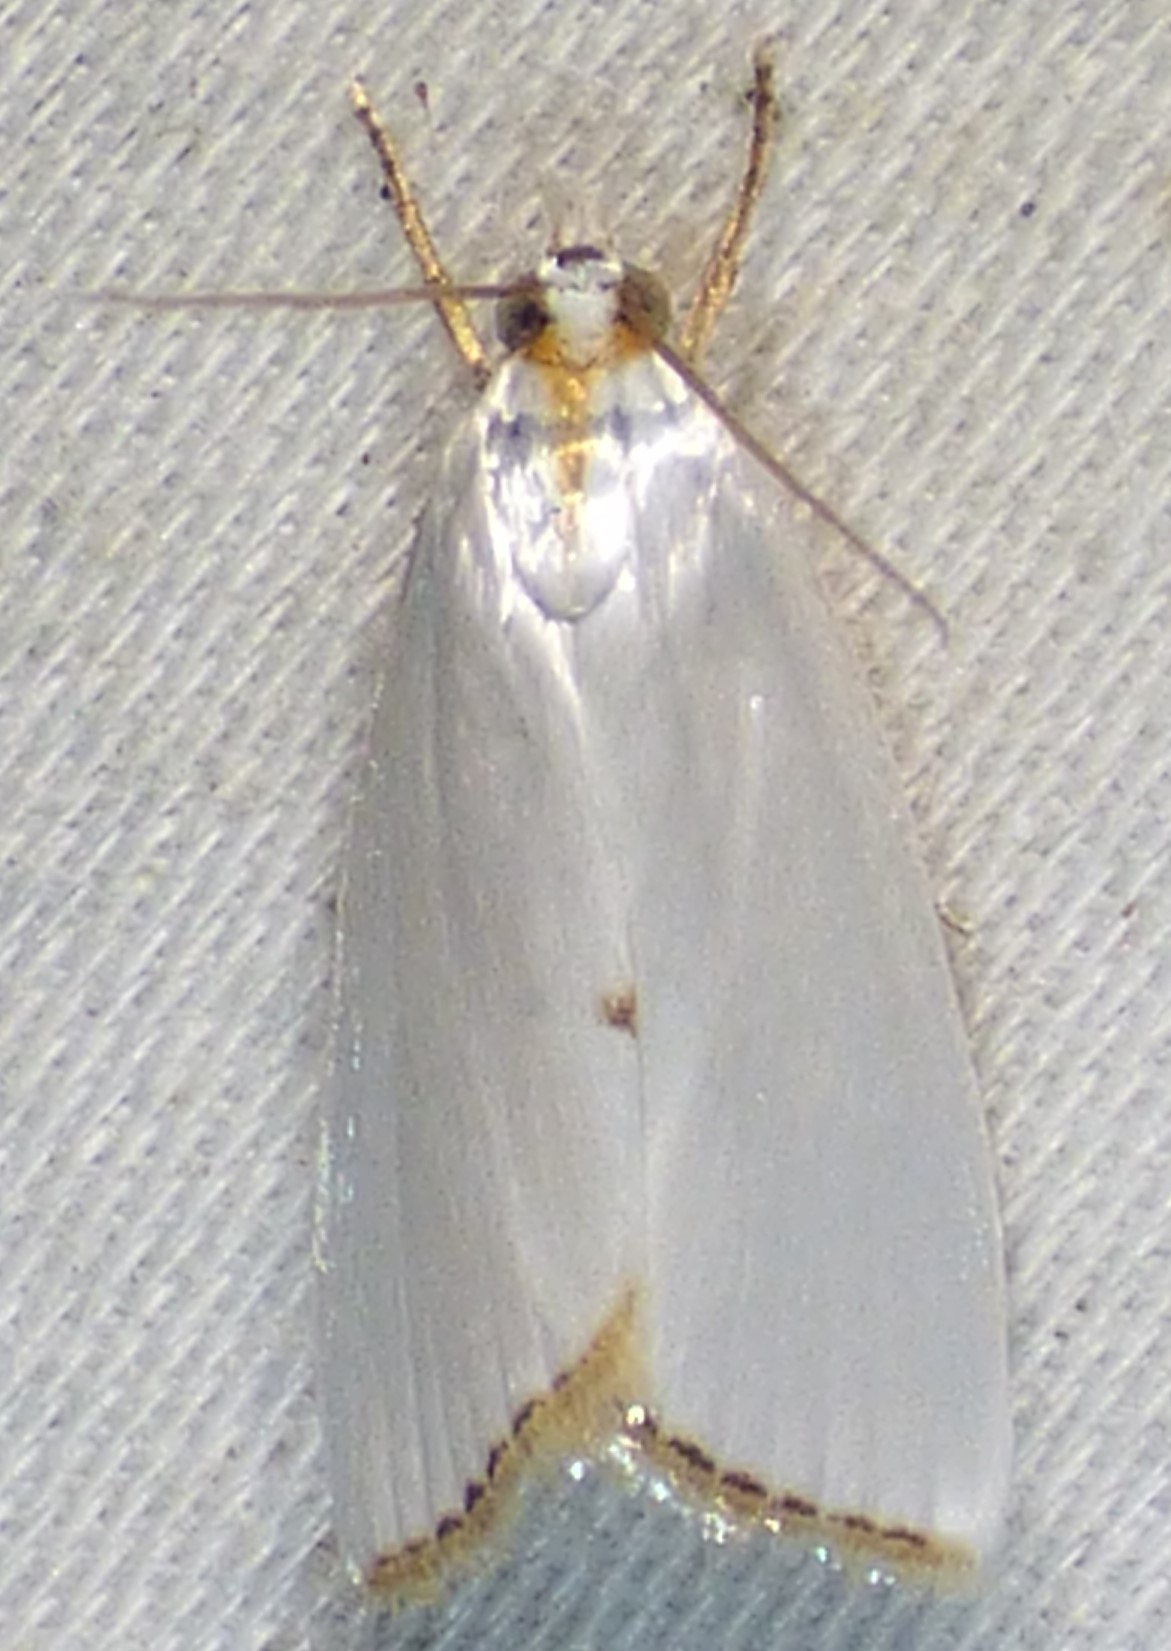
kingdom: Animalia
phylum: Arthropoda
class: Insecta
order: Lepidoptera
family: Crambidae
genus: Argyria
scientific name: Argyria nivalis
